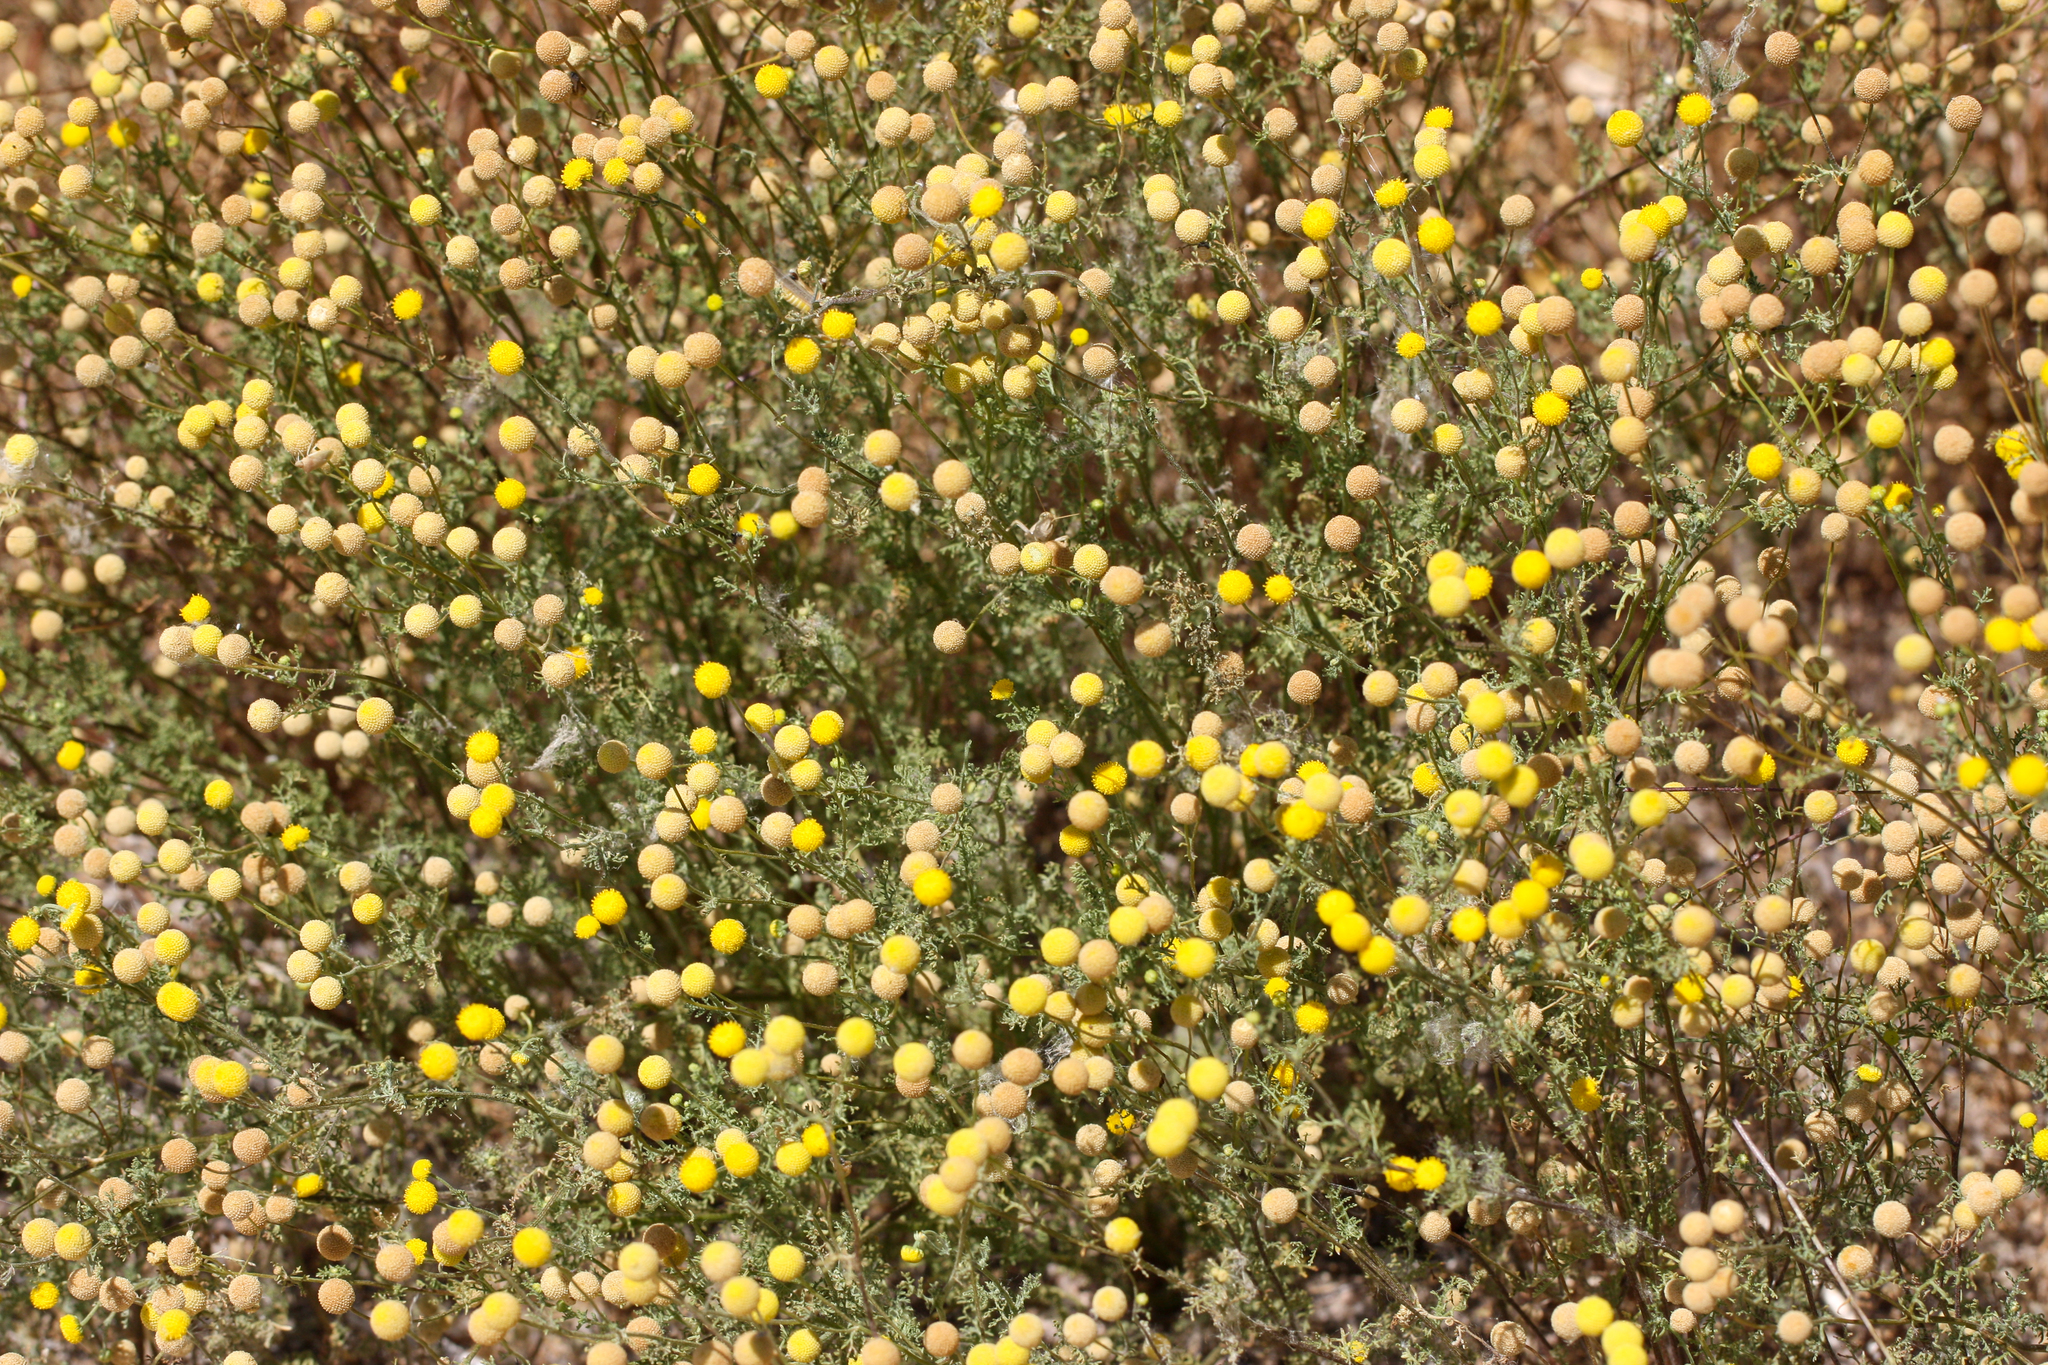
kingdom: Plantae
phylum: Tracheophyta
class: Magnoliopsida
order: Asterales
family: Asteraceae
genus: Oncosiphon
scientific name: Oncosiphon pilulifer
